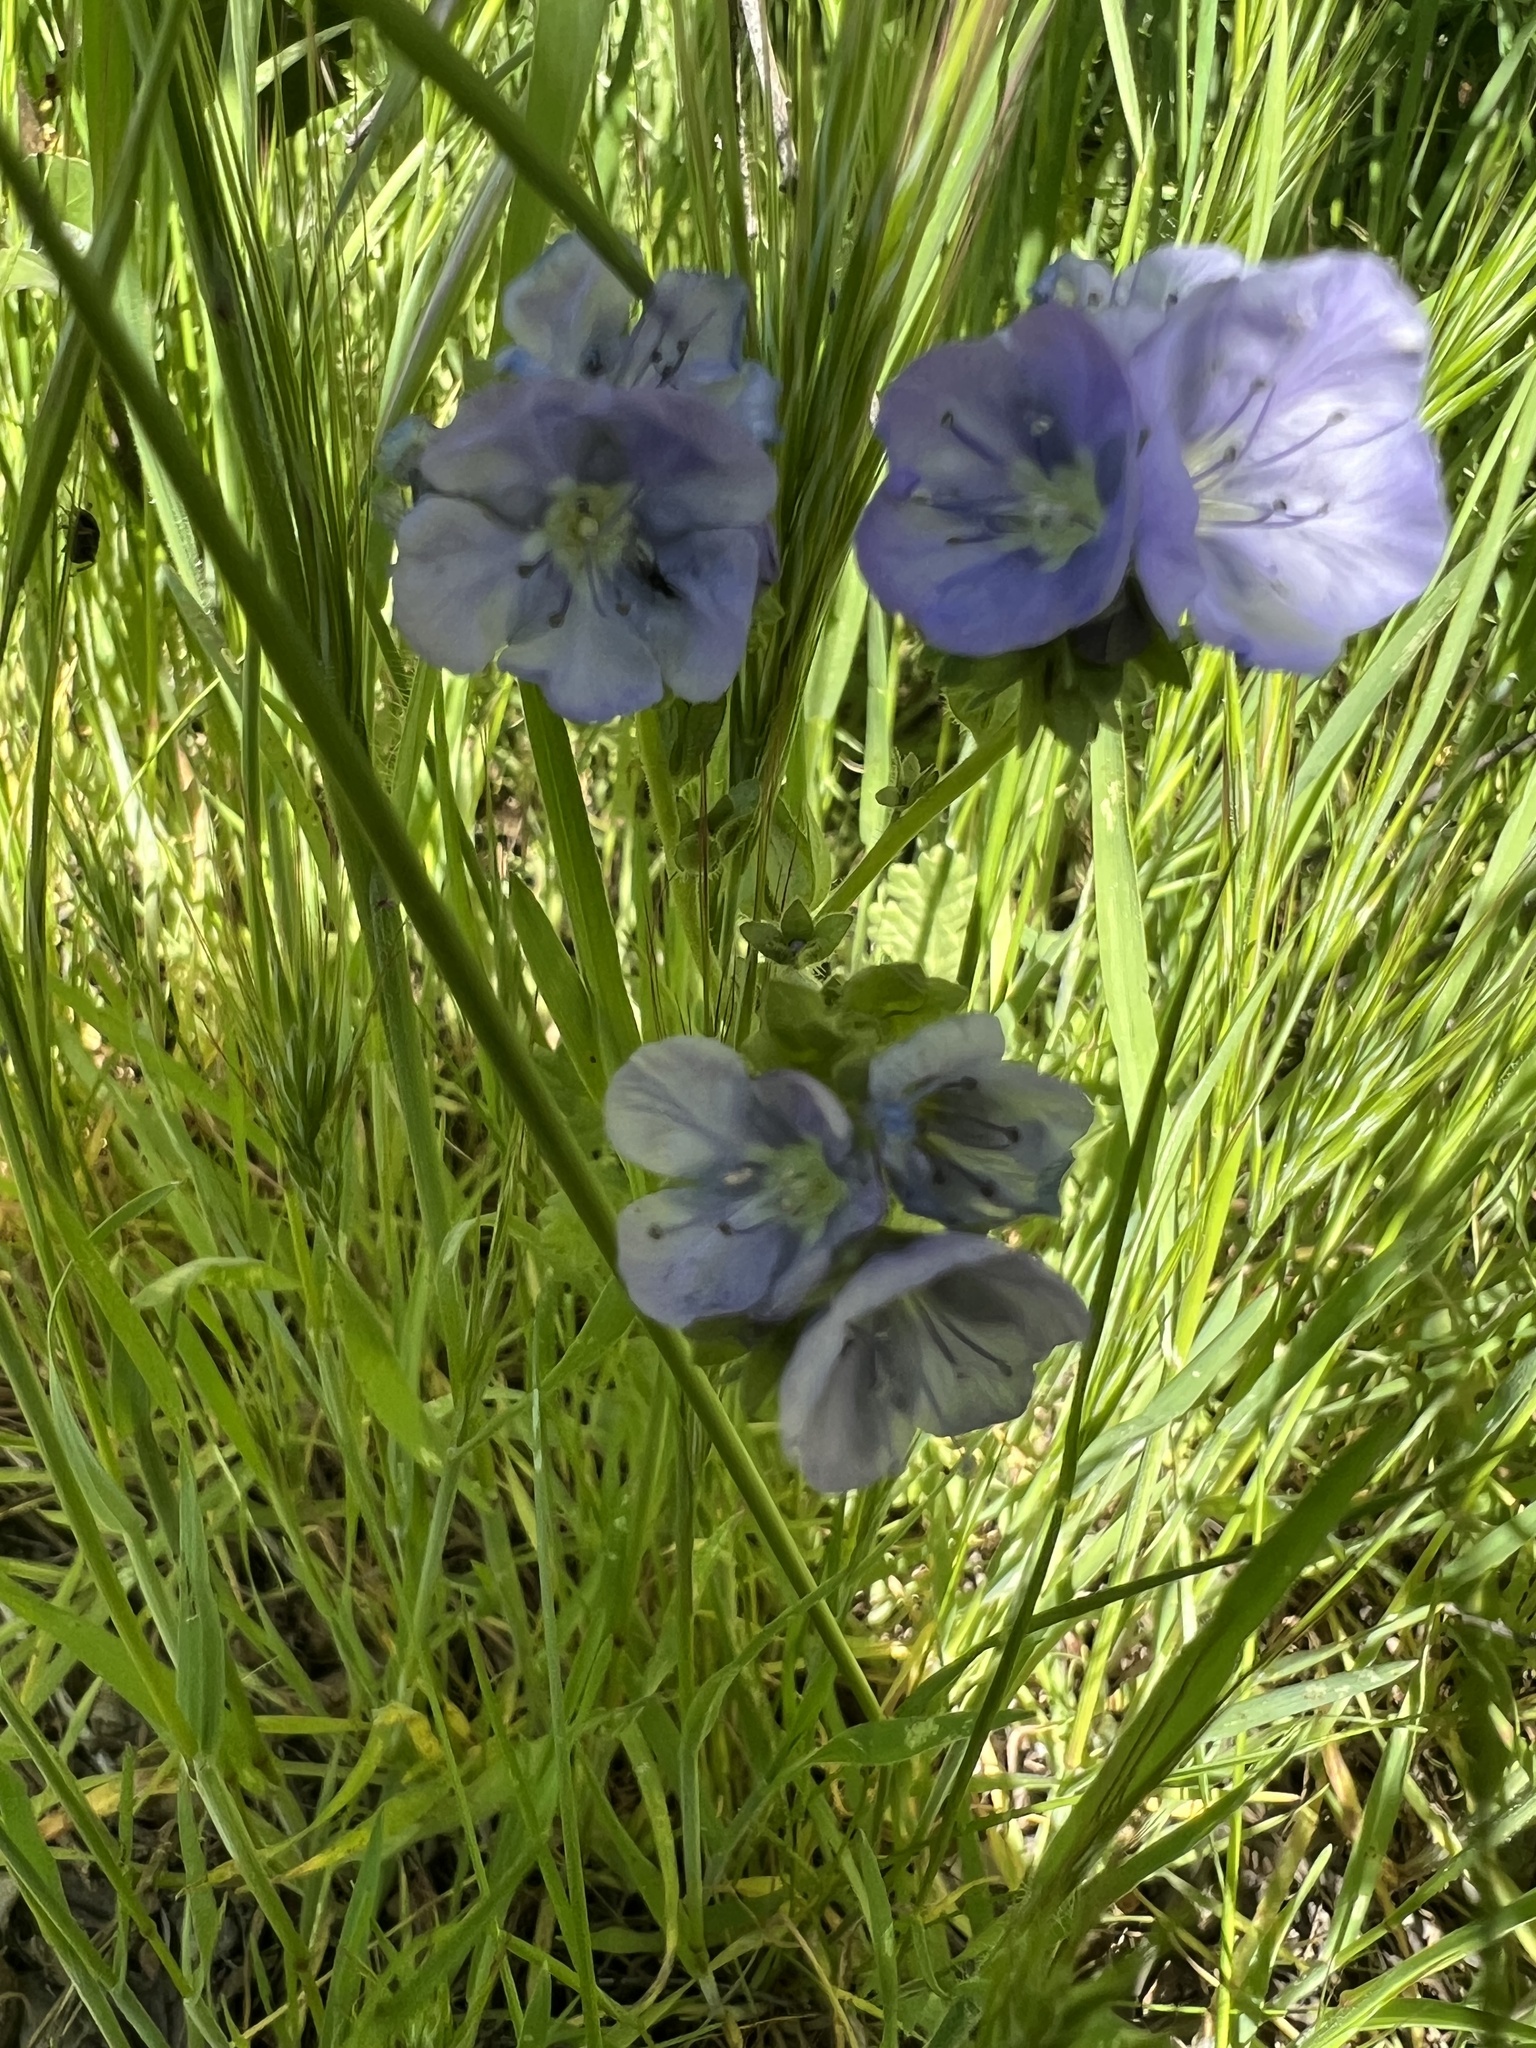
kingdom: Plantae
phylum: Tracheophyta
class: Magnoliopsida
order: Boraginales
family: Hydrophyllaceae
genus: Phacelia
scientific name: Phacelia ciliata
